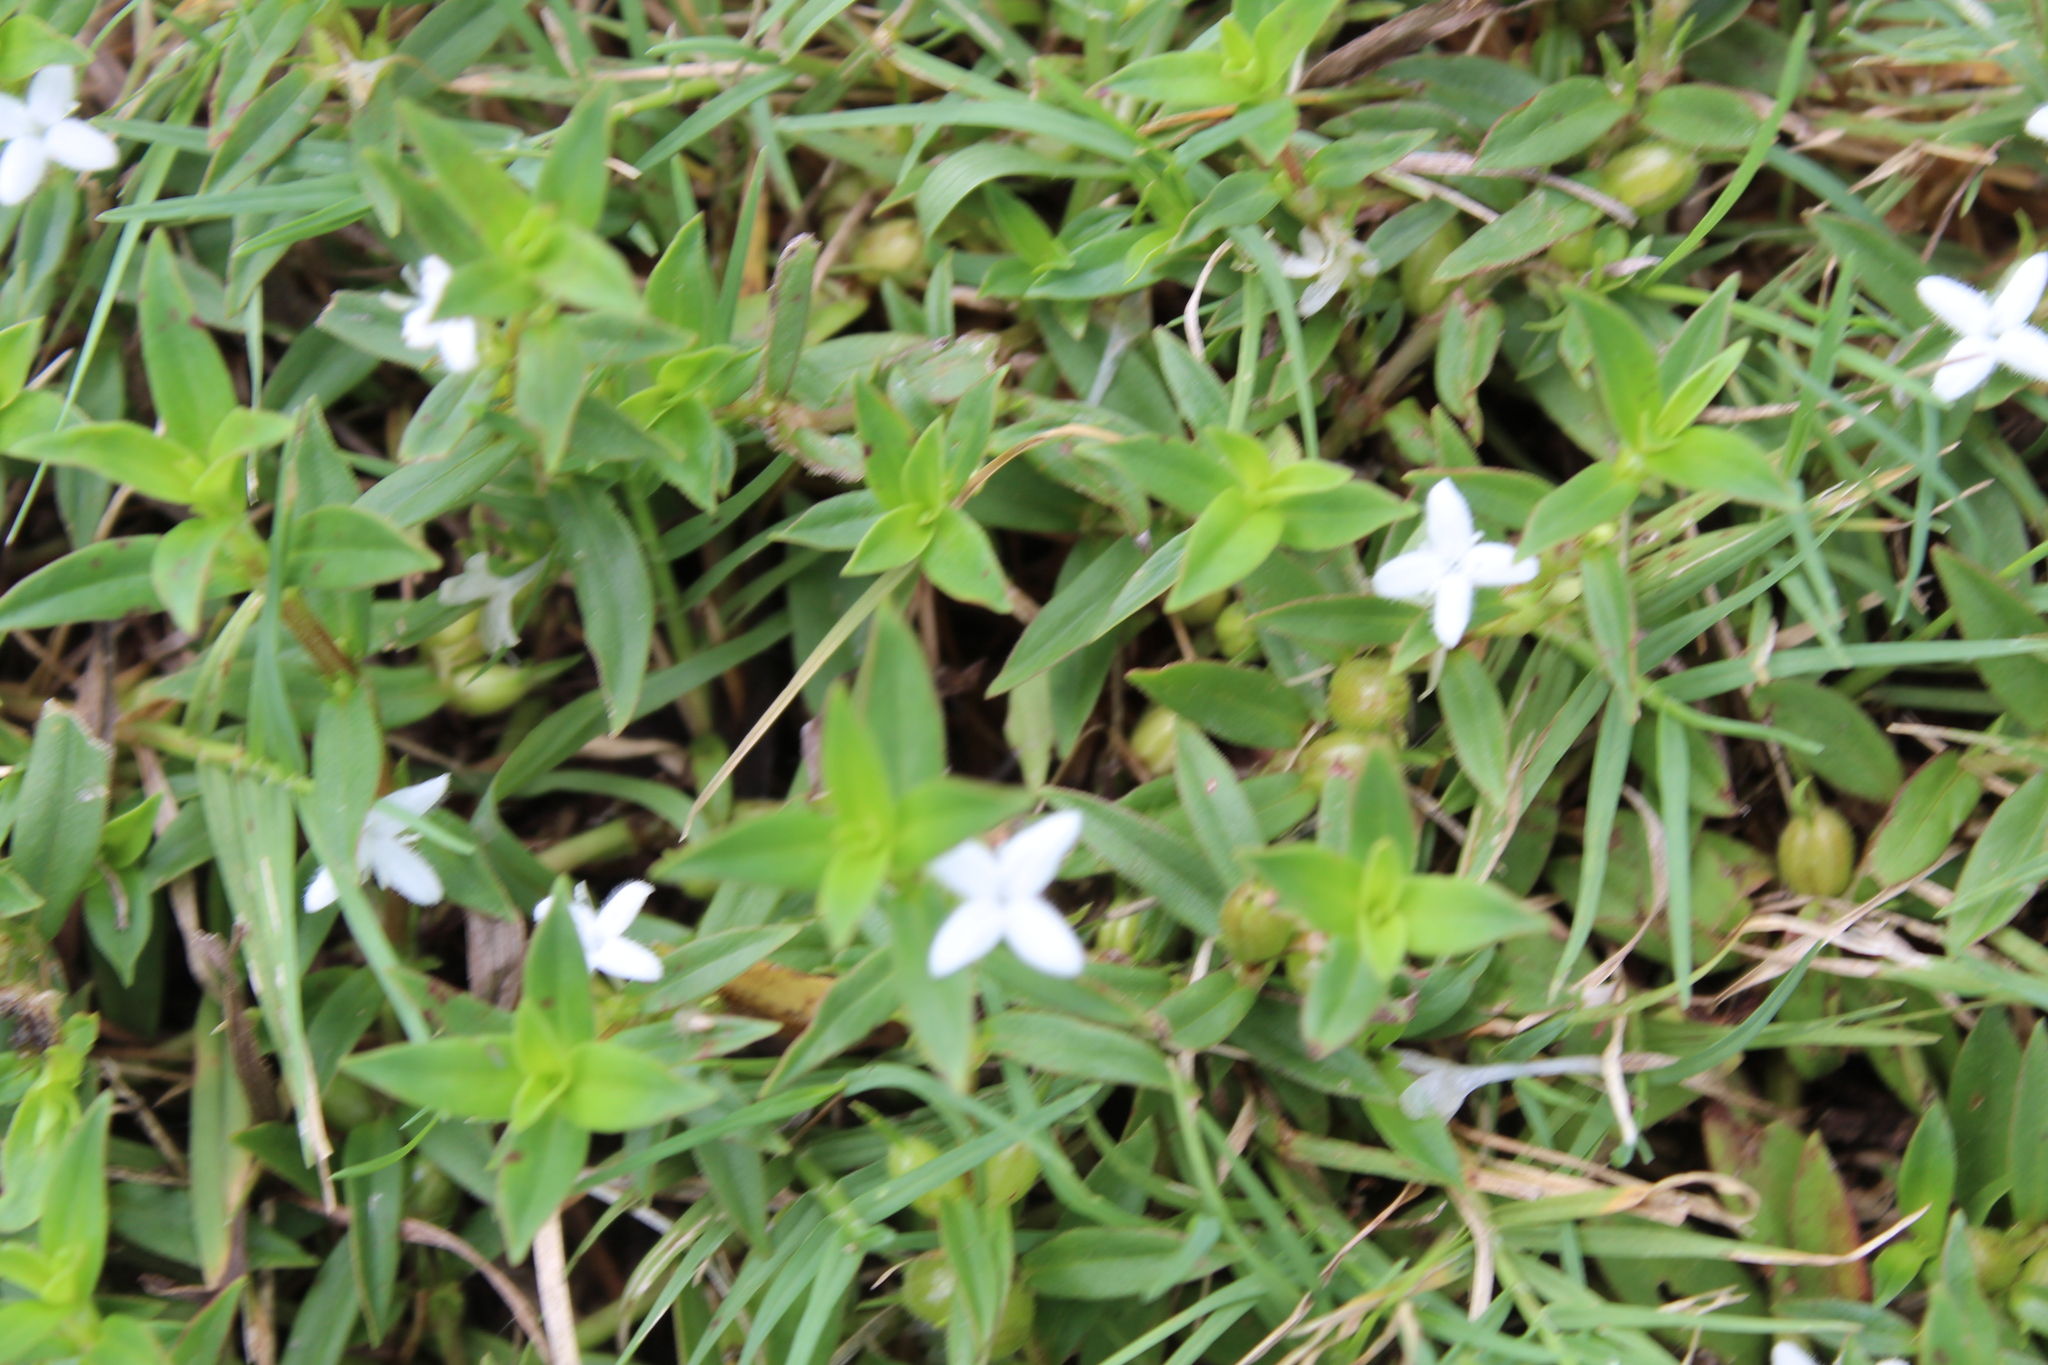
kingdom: Plantae
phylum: Tracheophyta
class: Magnoliopsida
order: Gentianales
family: Rubiaceae
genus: Diodia
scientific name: Diodia virginiana
